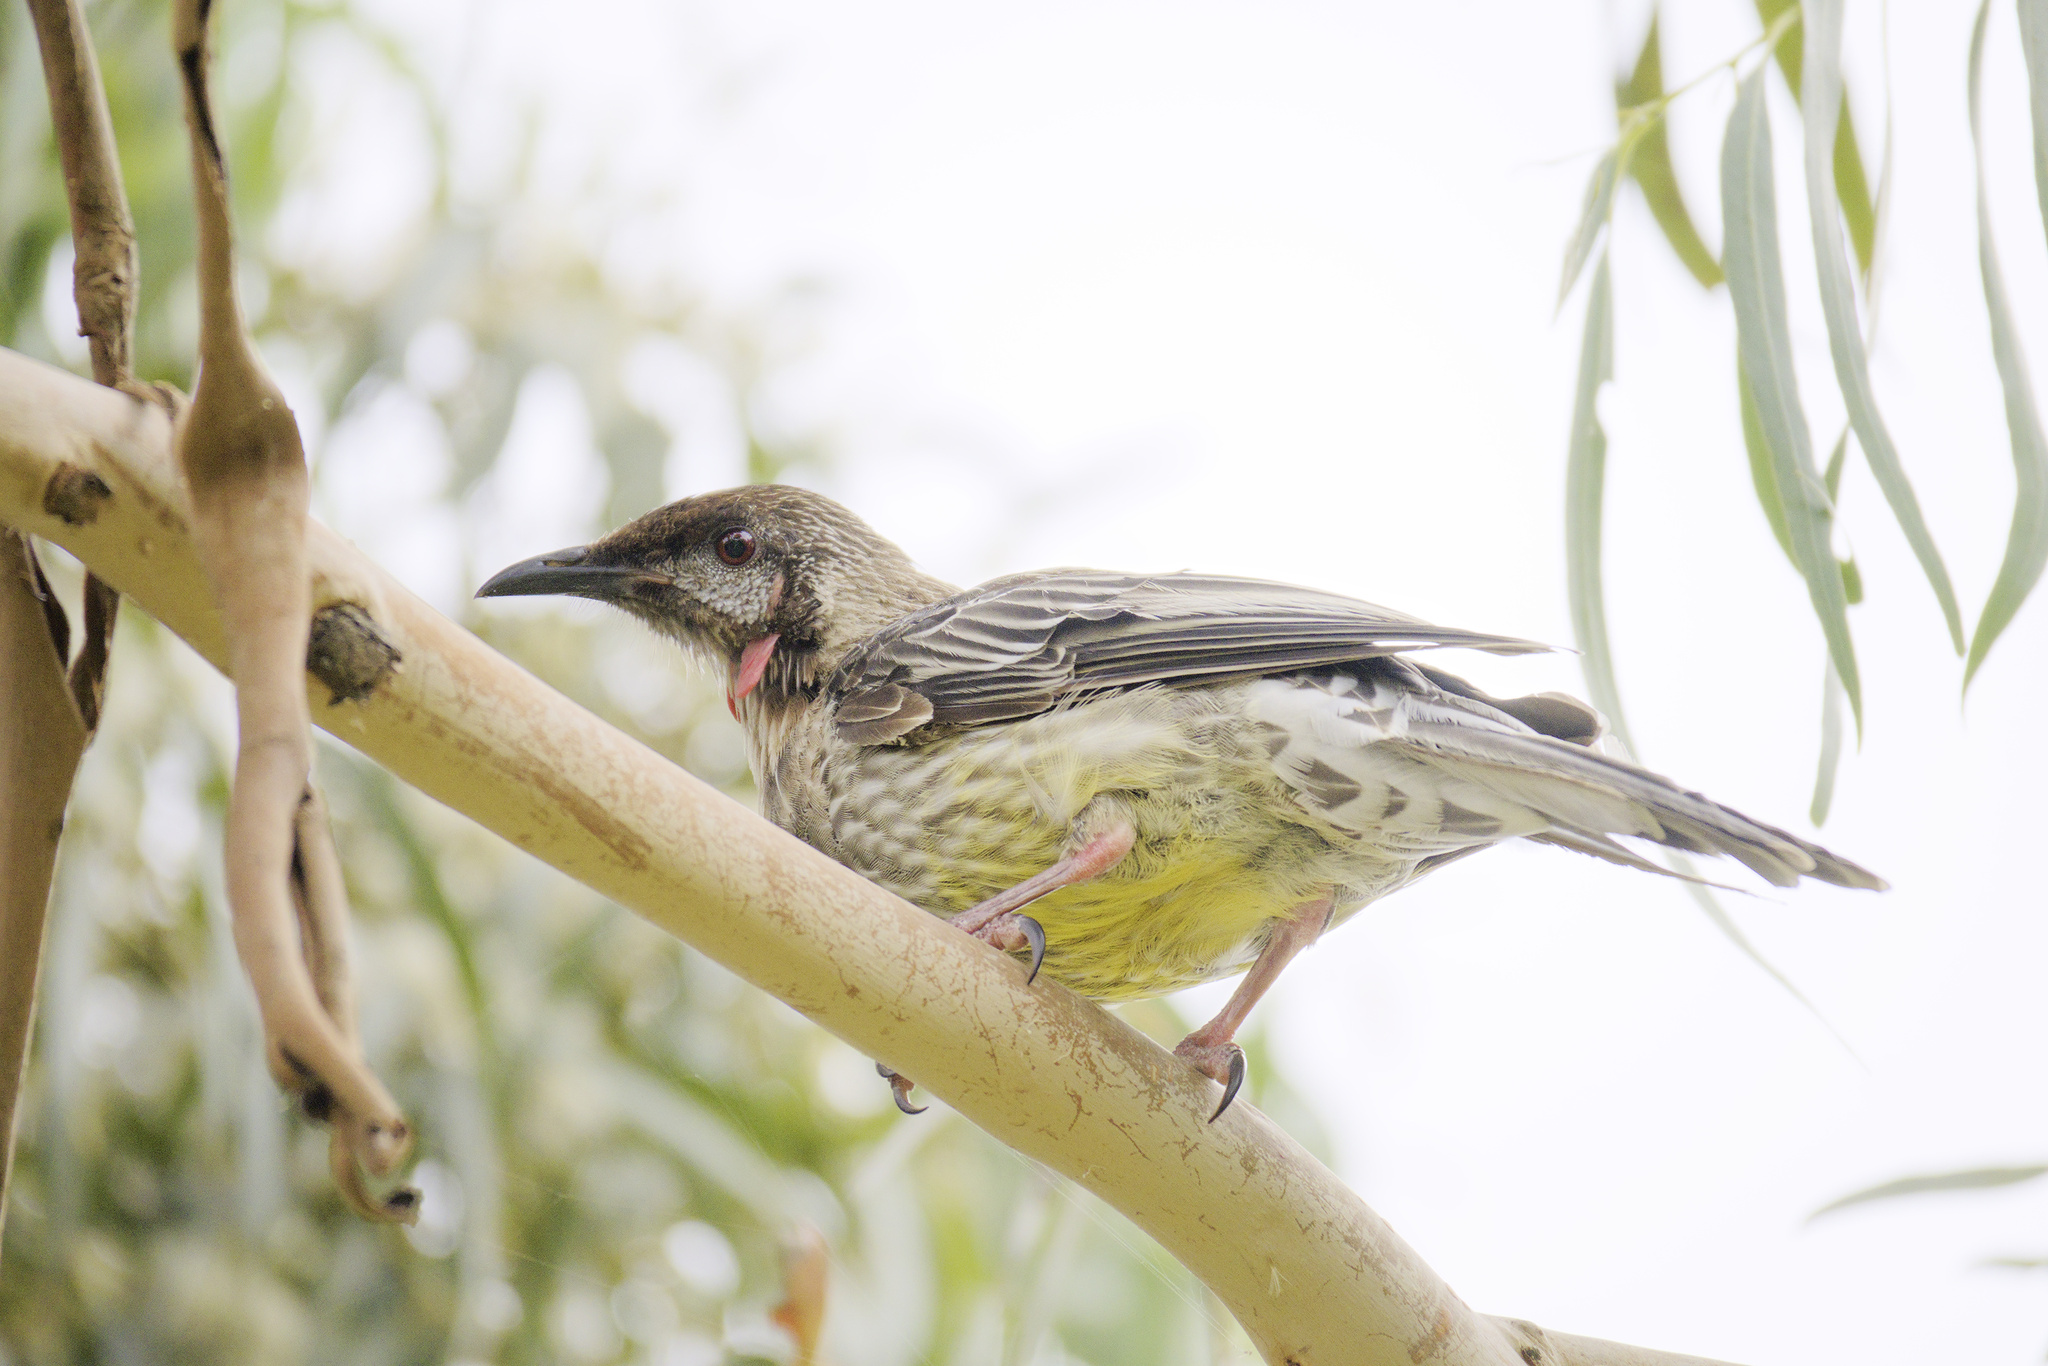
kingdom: Animalia
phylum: Chordata
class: Aves
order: Passeriformes
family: Meliphagidae
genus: Anthochaera
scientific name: Anthochaera carunculata
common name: Red wattlebird
